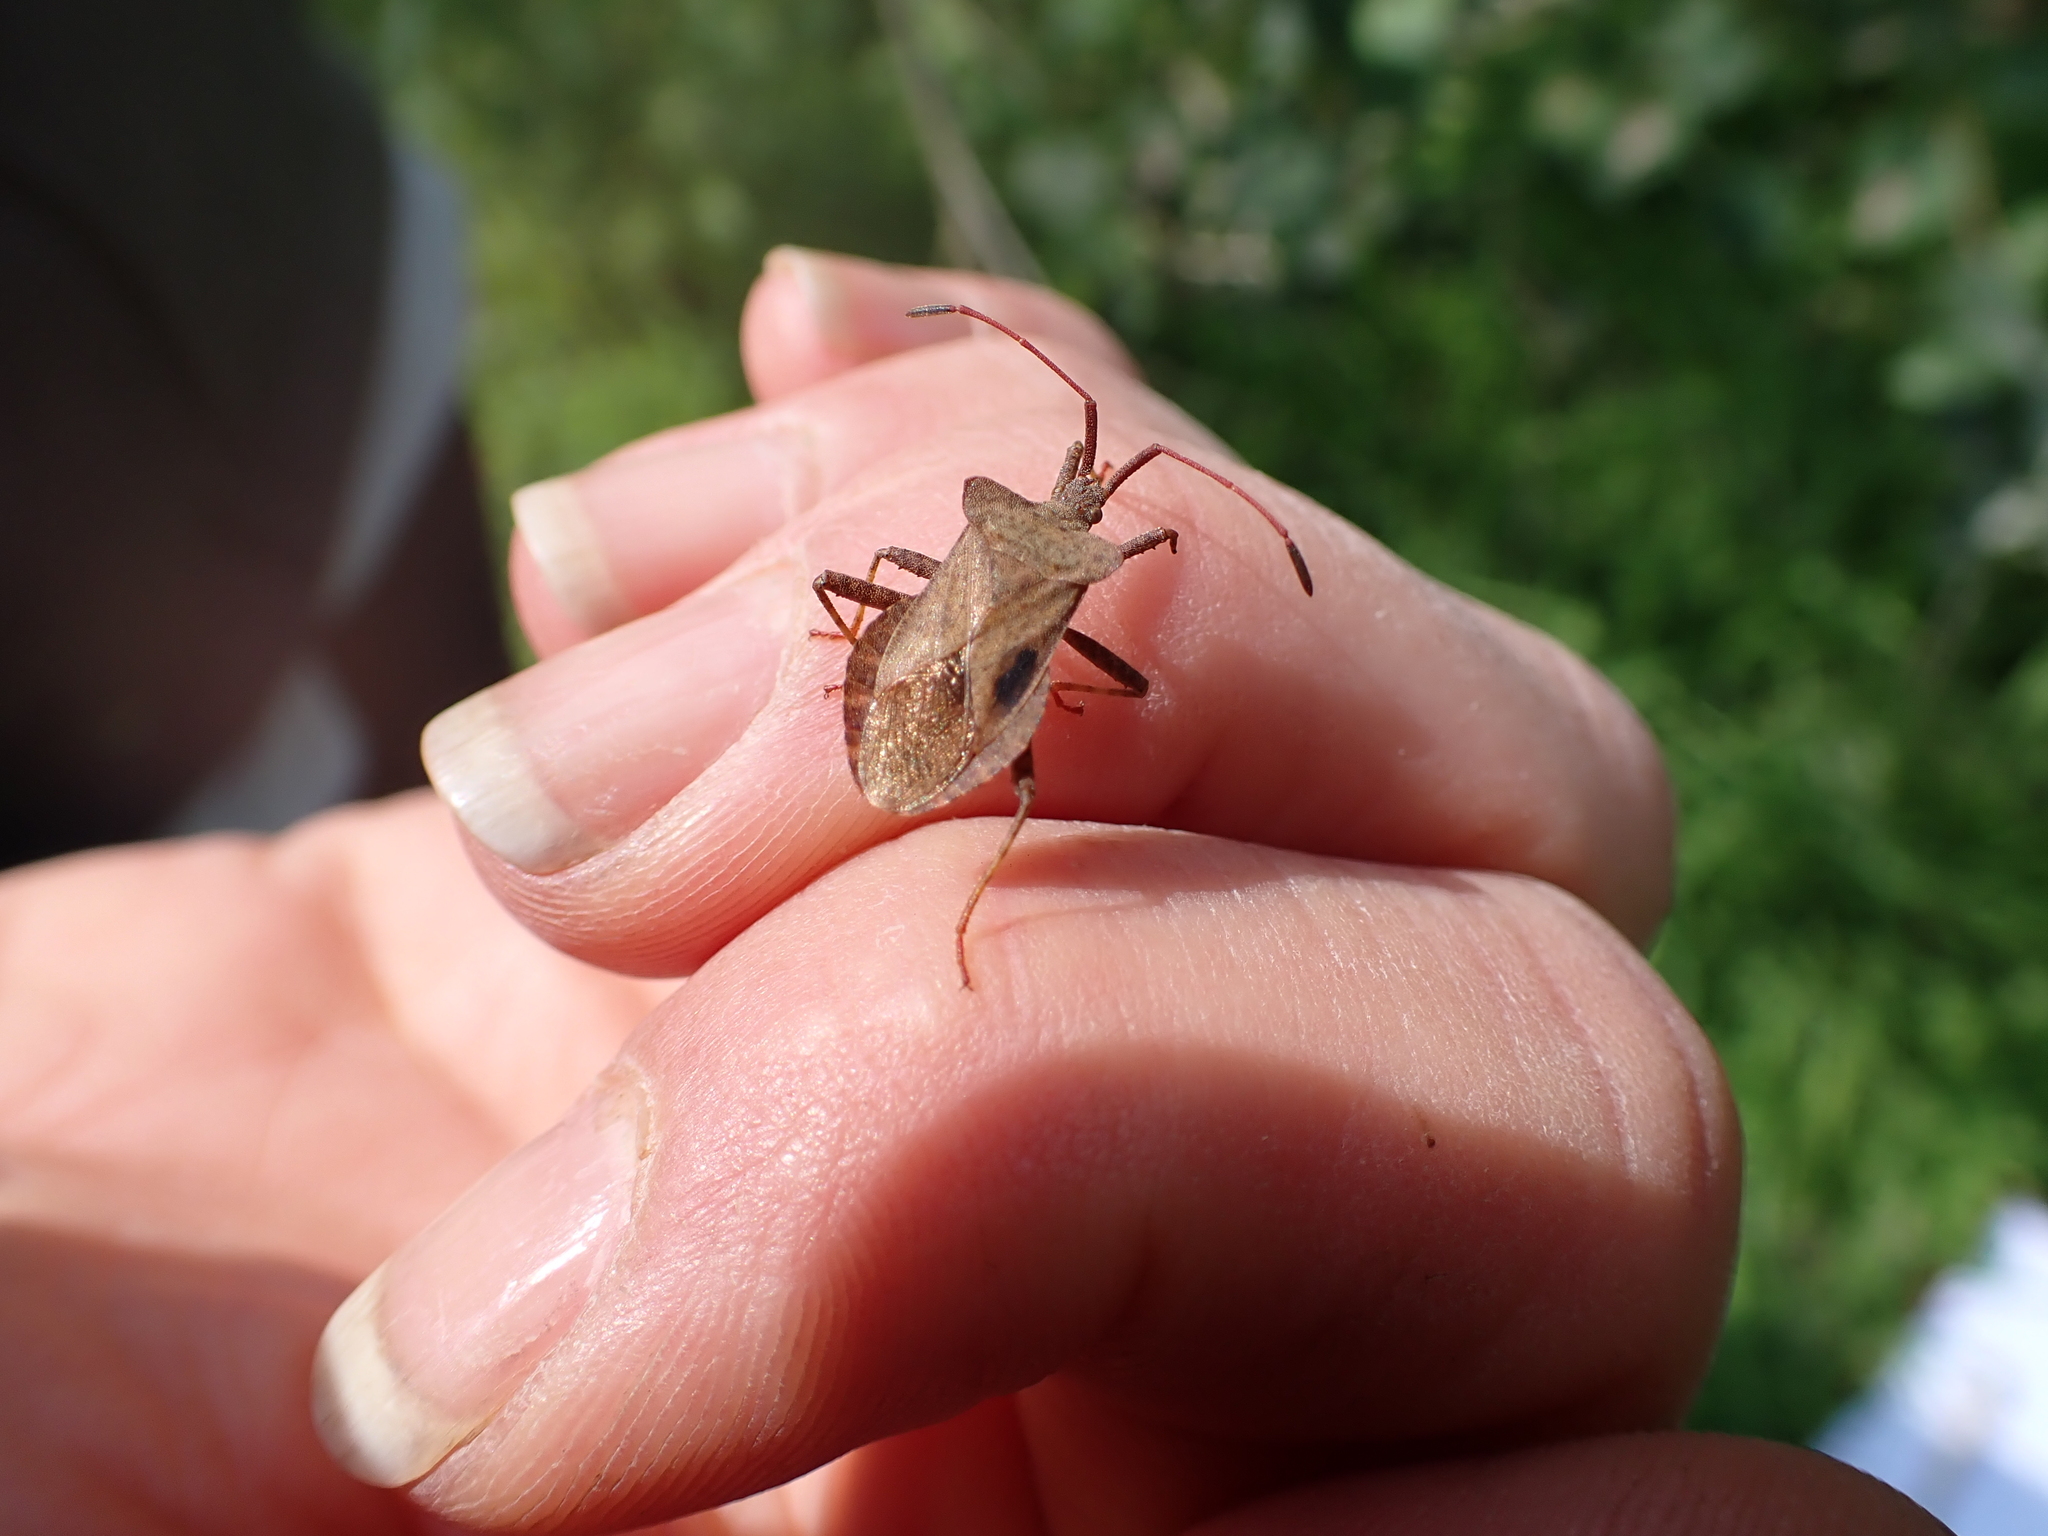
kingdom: Animalia
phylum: Arthropoda
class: Insecta
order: Hemiptera
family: Coreidae
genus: Coreus
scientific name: Coreus marginatus
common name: Dock bug
